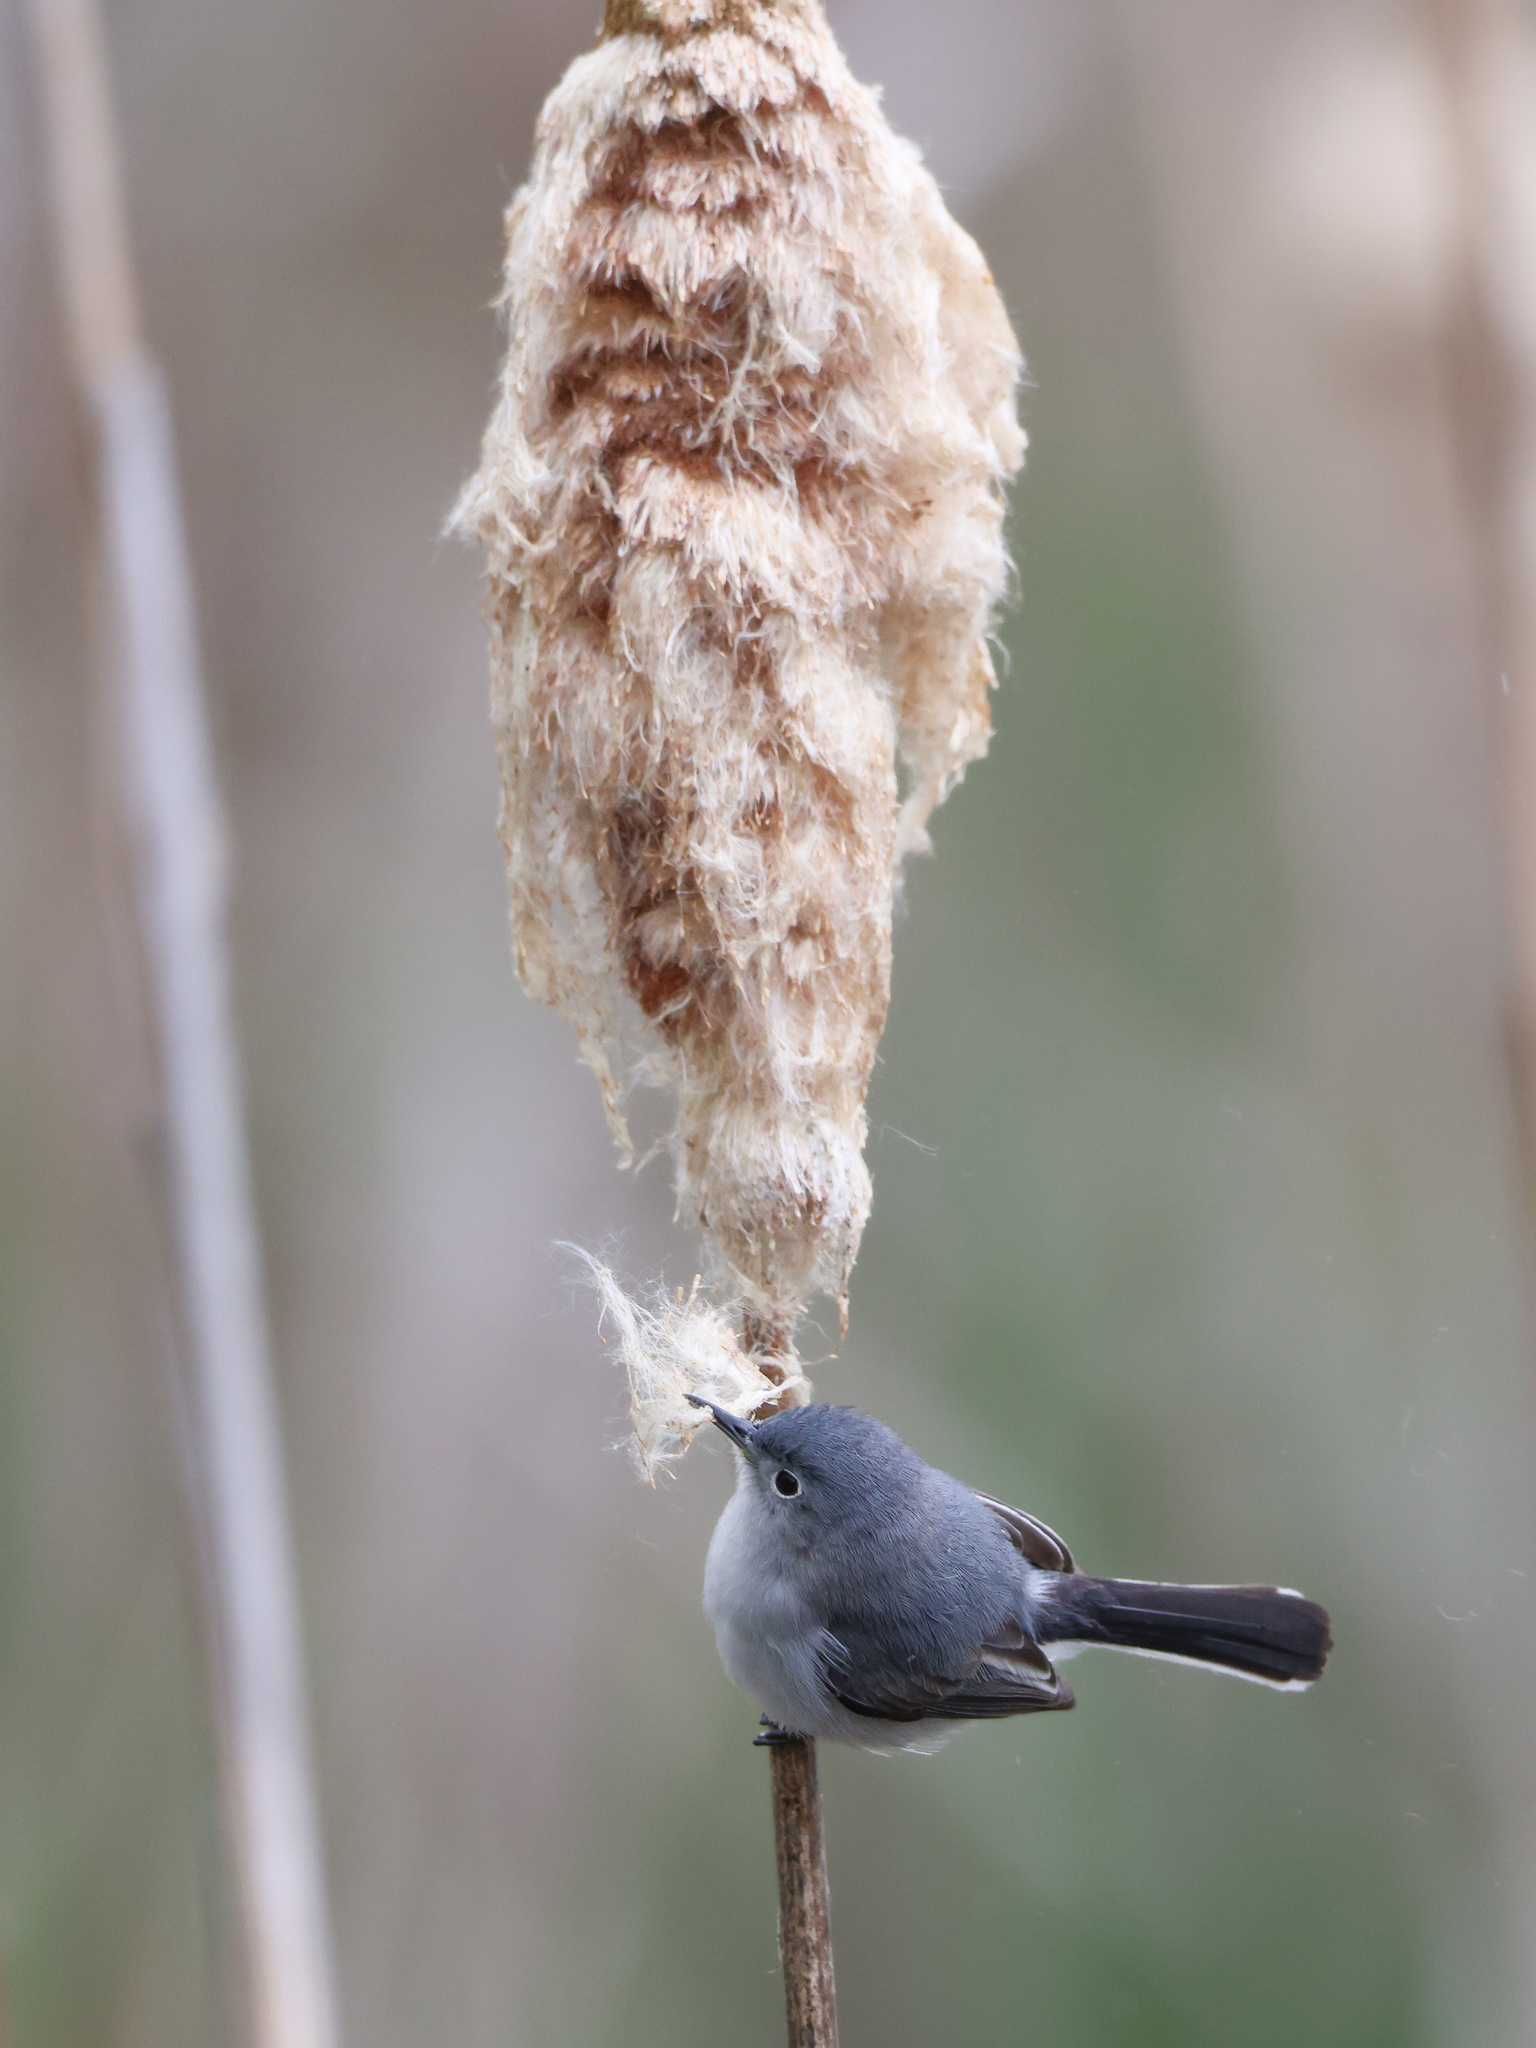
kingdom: Animalia
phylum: Chordata
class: Aves
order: Passeriformes
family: Polioptilidae
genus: Polioptila
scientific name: Polioptila caerulea
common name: Blue-gray gnatcatcher
